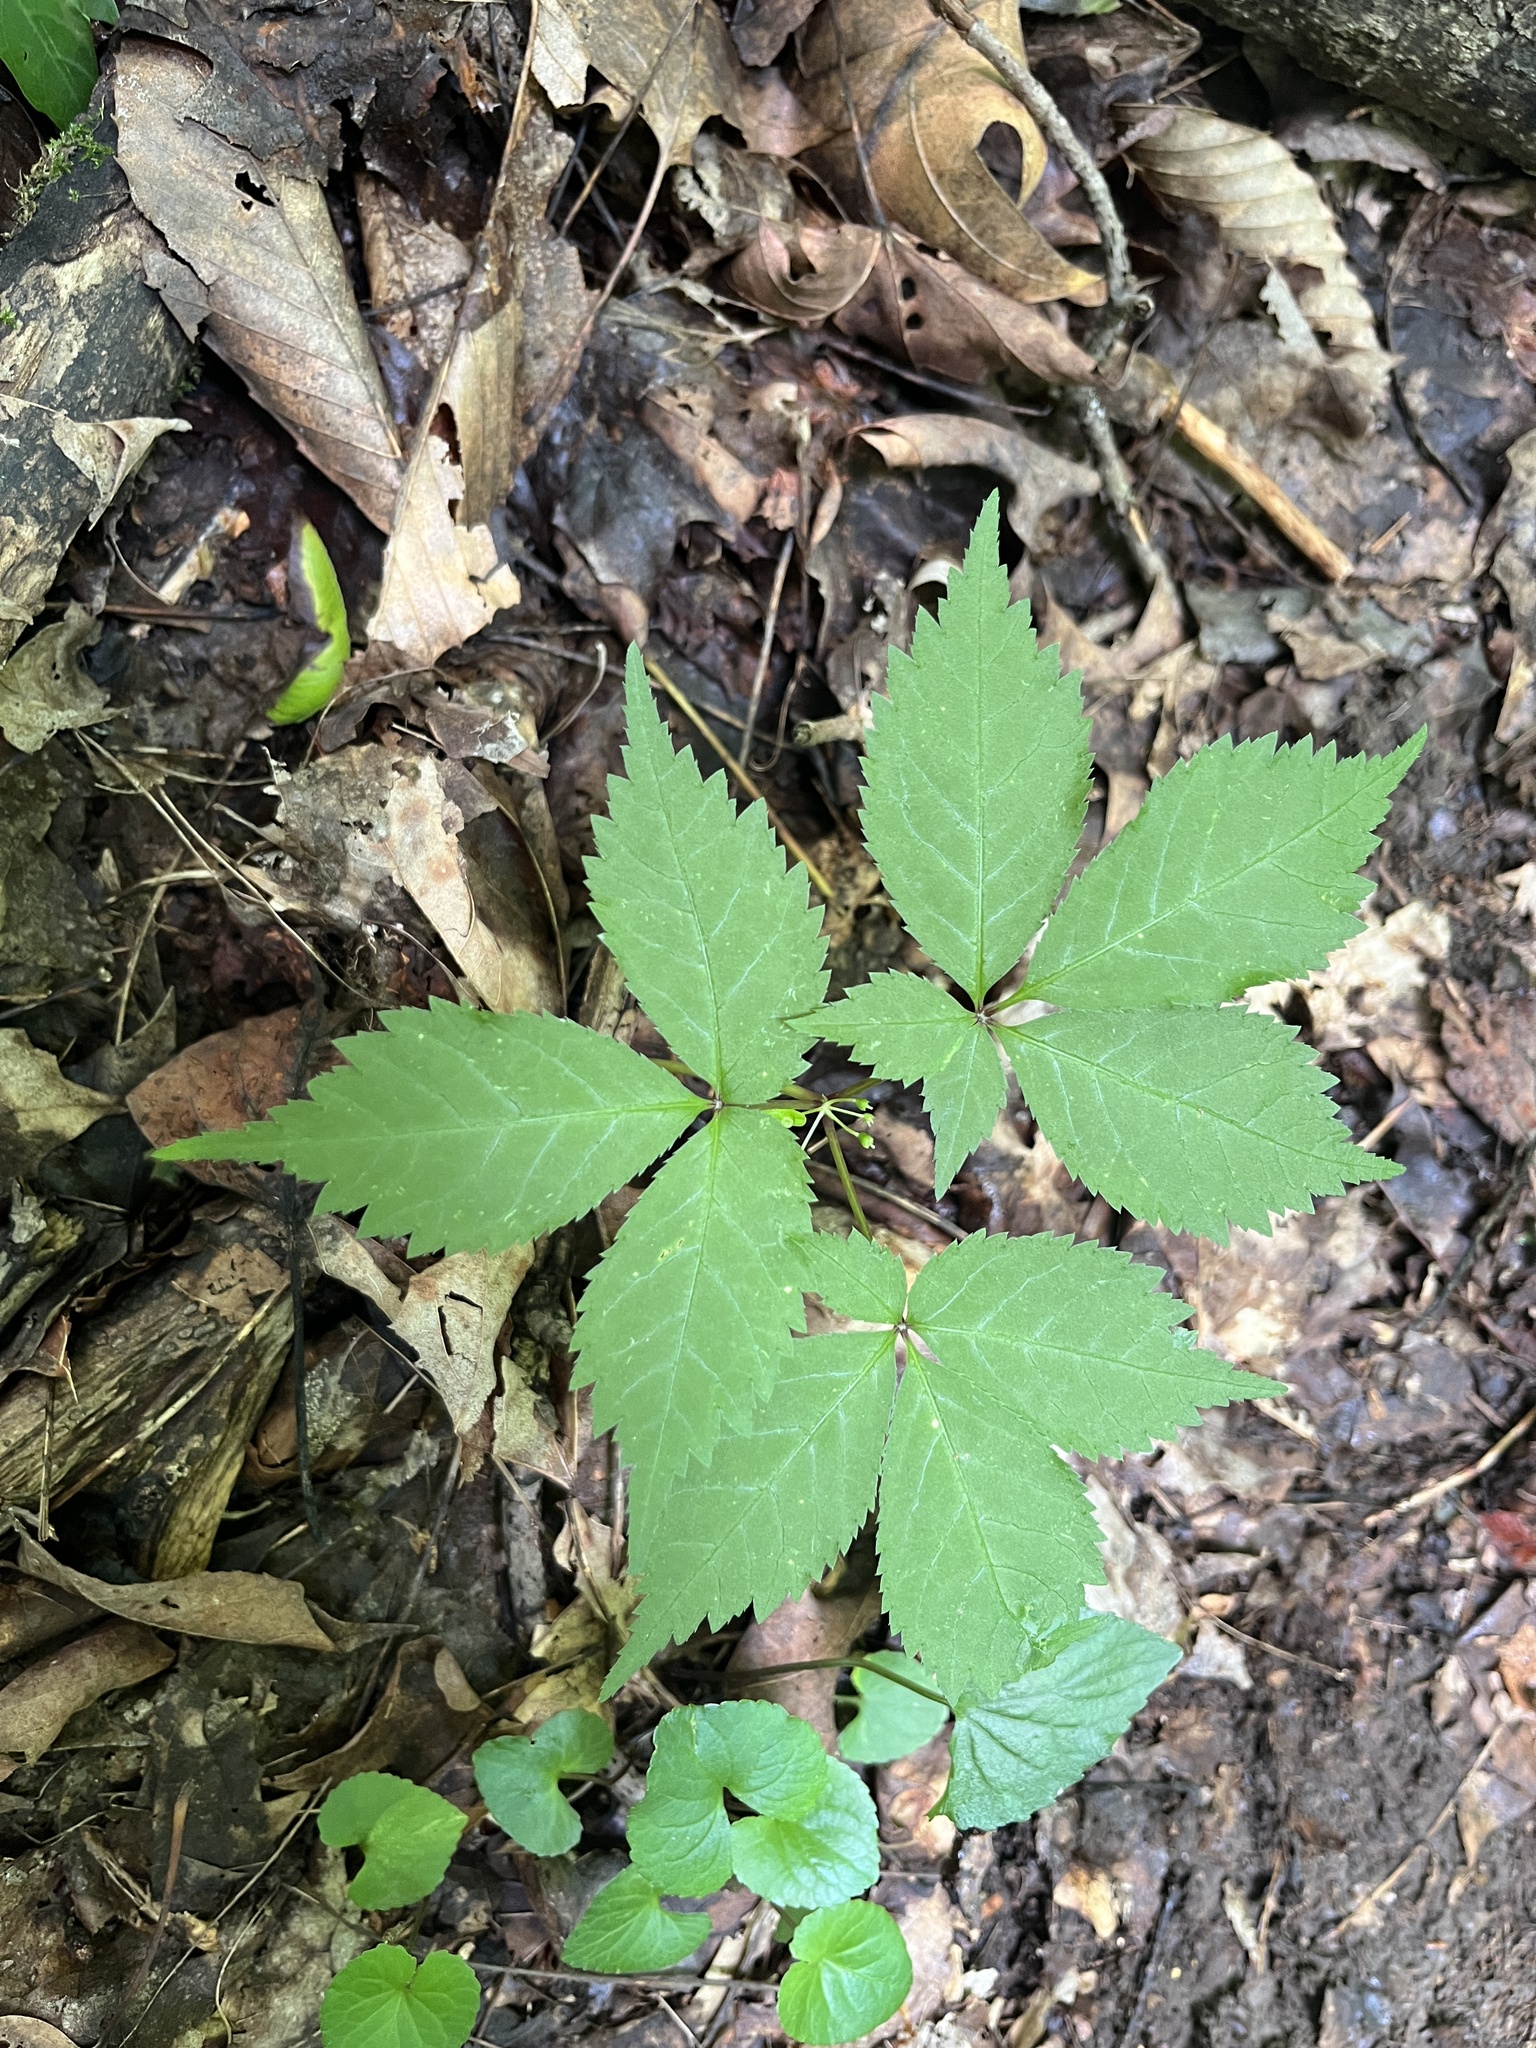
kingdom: Plantae
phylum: Tracheophyta
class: Magnoliopsida
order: Apiales
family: Araliaceae
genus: Panax
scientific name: Panax quinquefolius
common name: American ginseng
